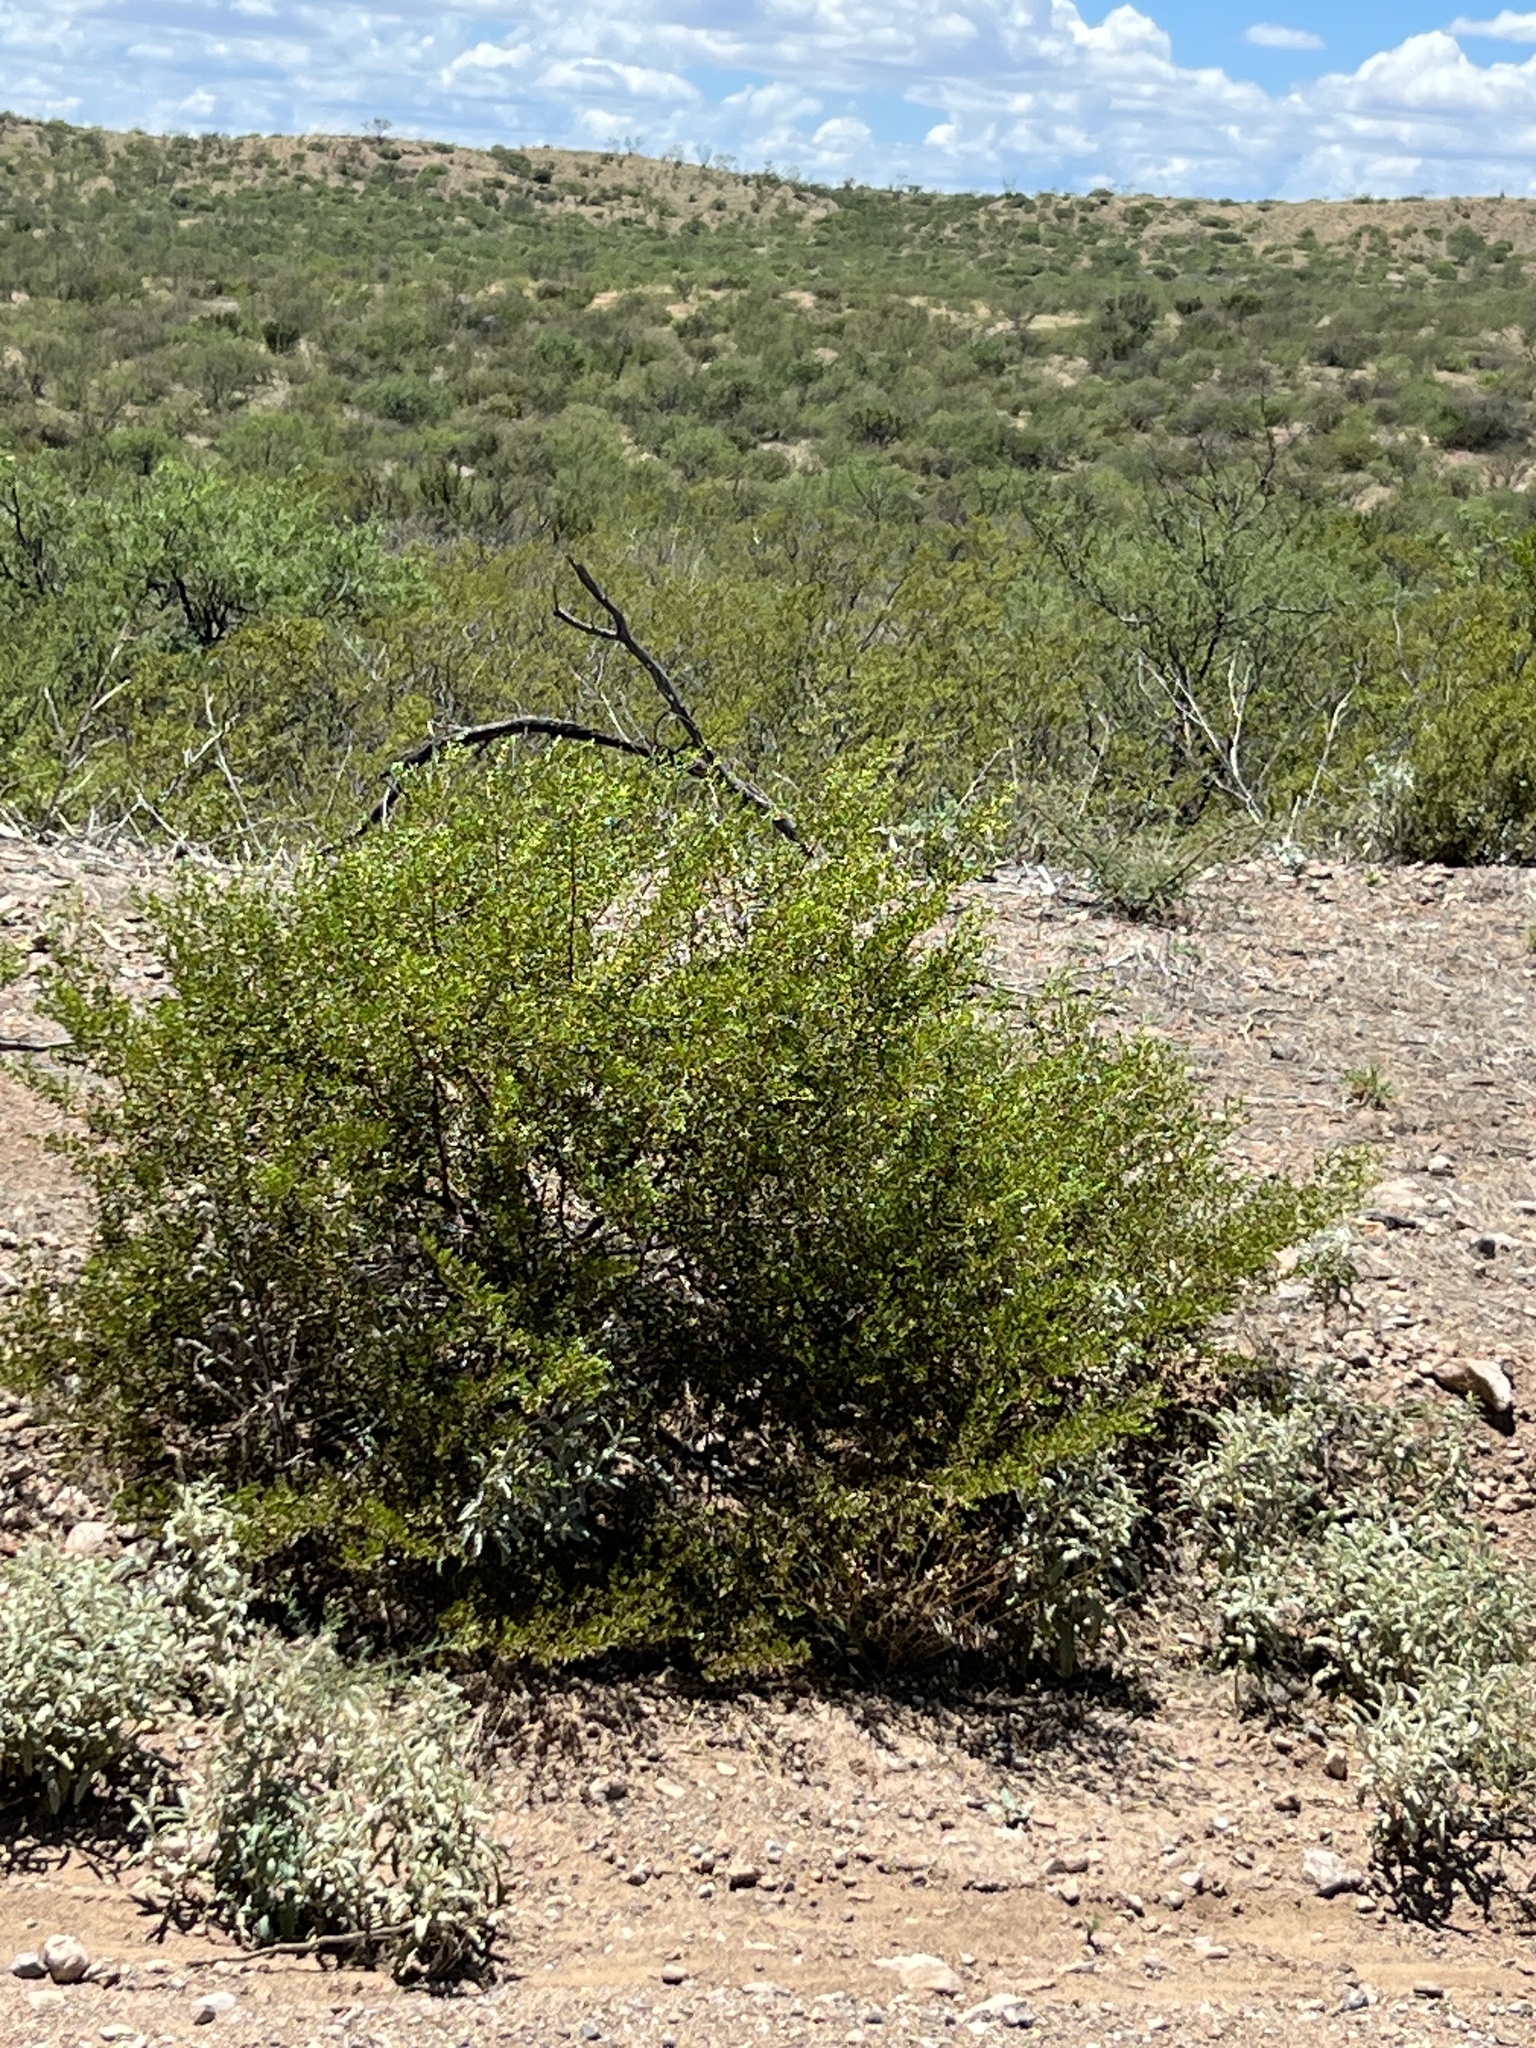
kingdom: Plantae
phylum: Tracheophyta
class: Magnoliopsida
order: Zygophyllales
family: Zygophyllaceae
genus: Larrea
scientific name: Larrea tridentata
